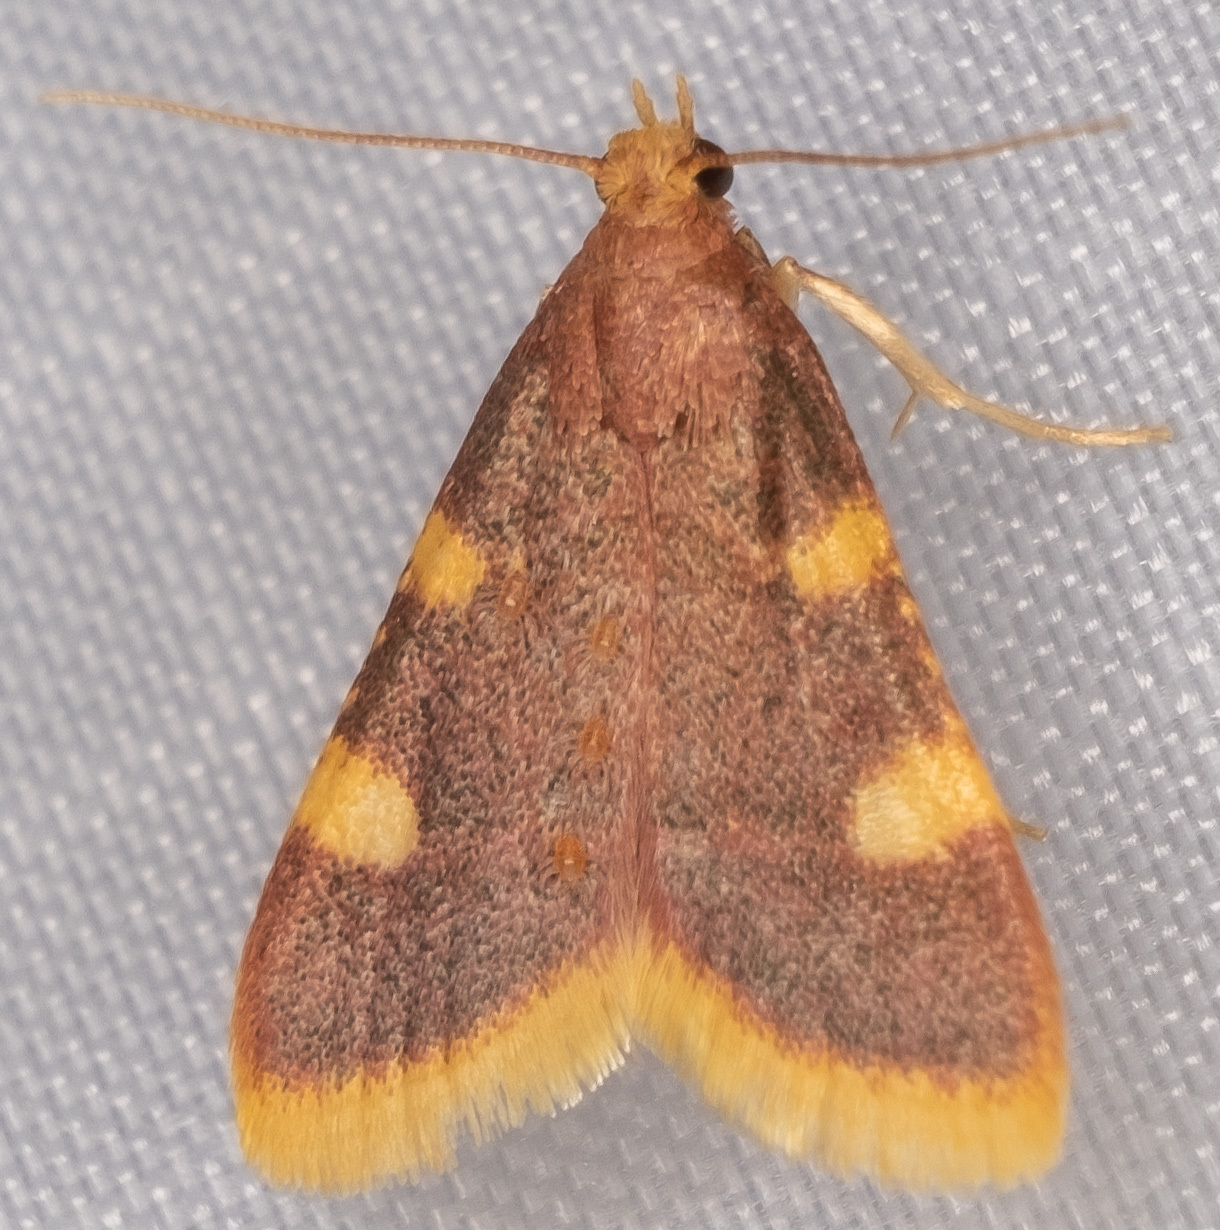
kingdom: Animalia
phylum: Arthropoda
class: Insecta
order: Lepidoptera
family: Pyralidae
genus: Hypsopygia
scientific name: Hypsopygia costalis
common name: Gold triangle
